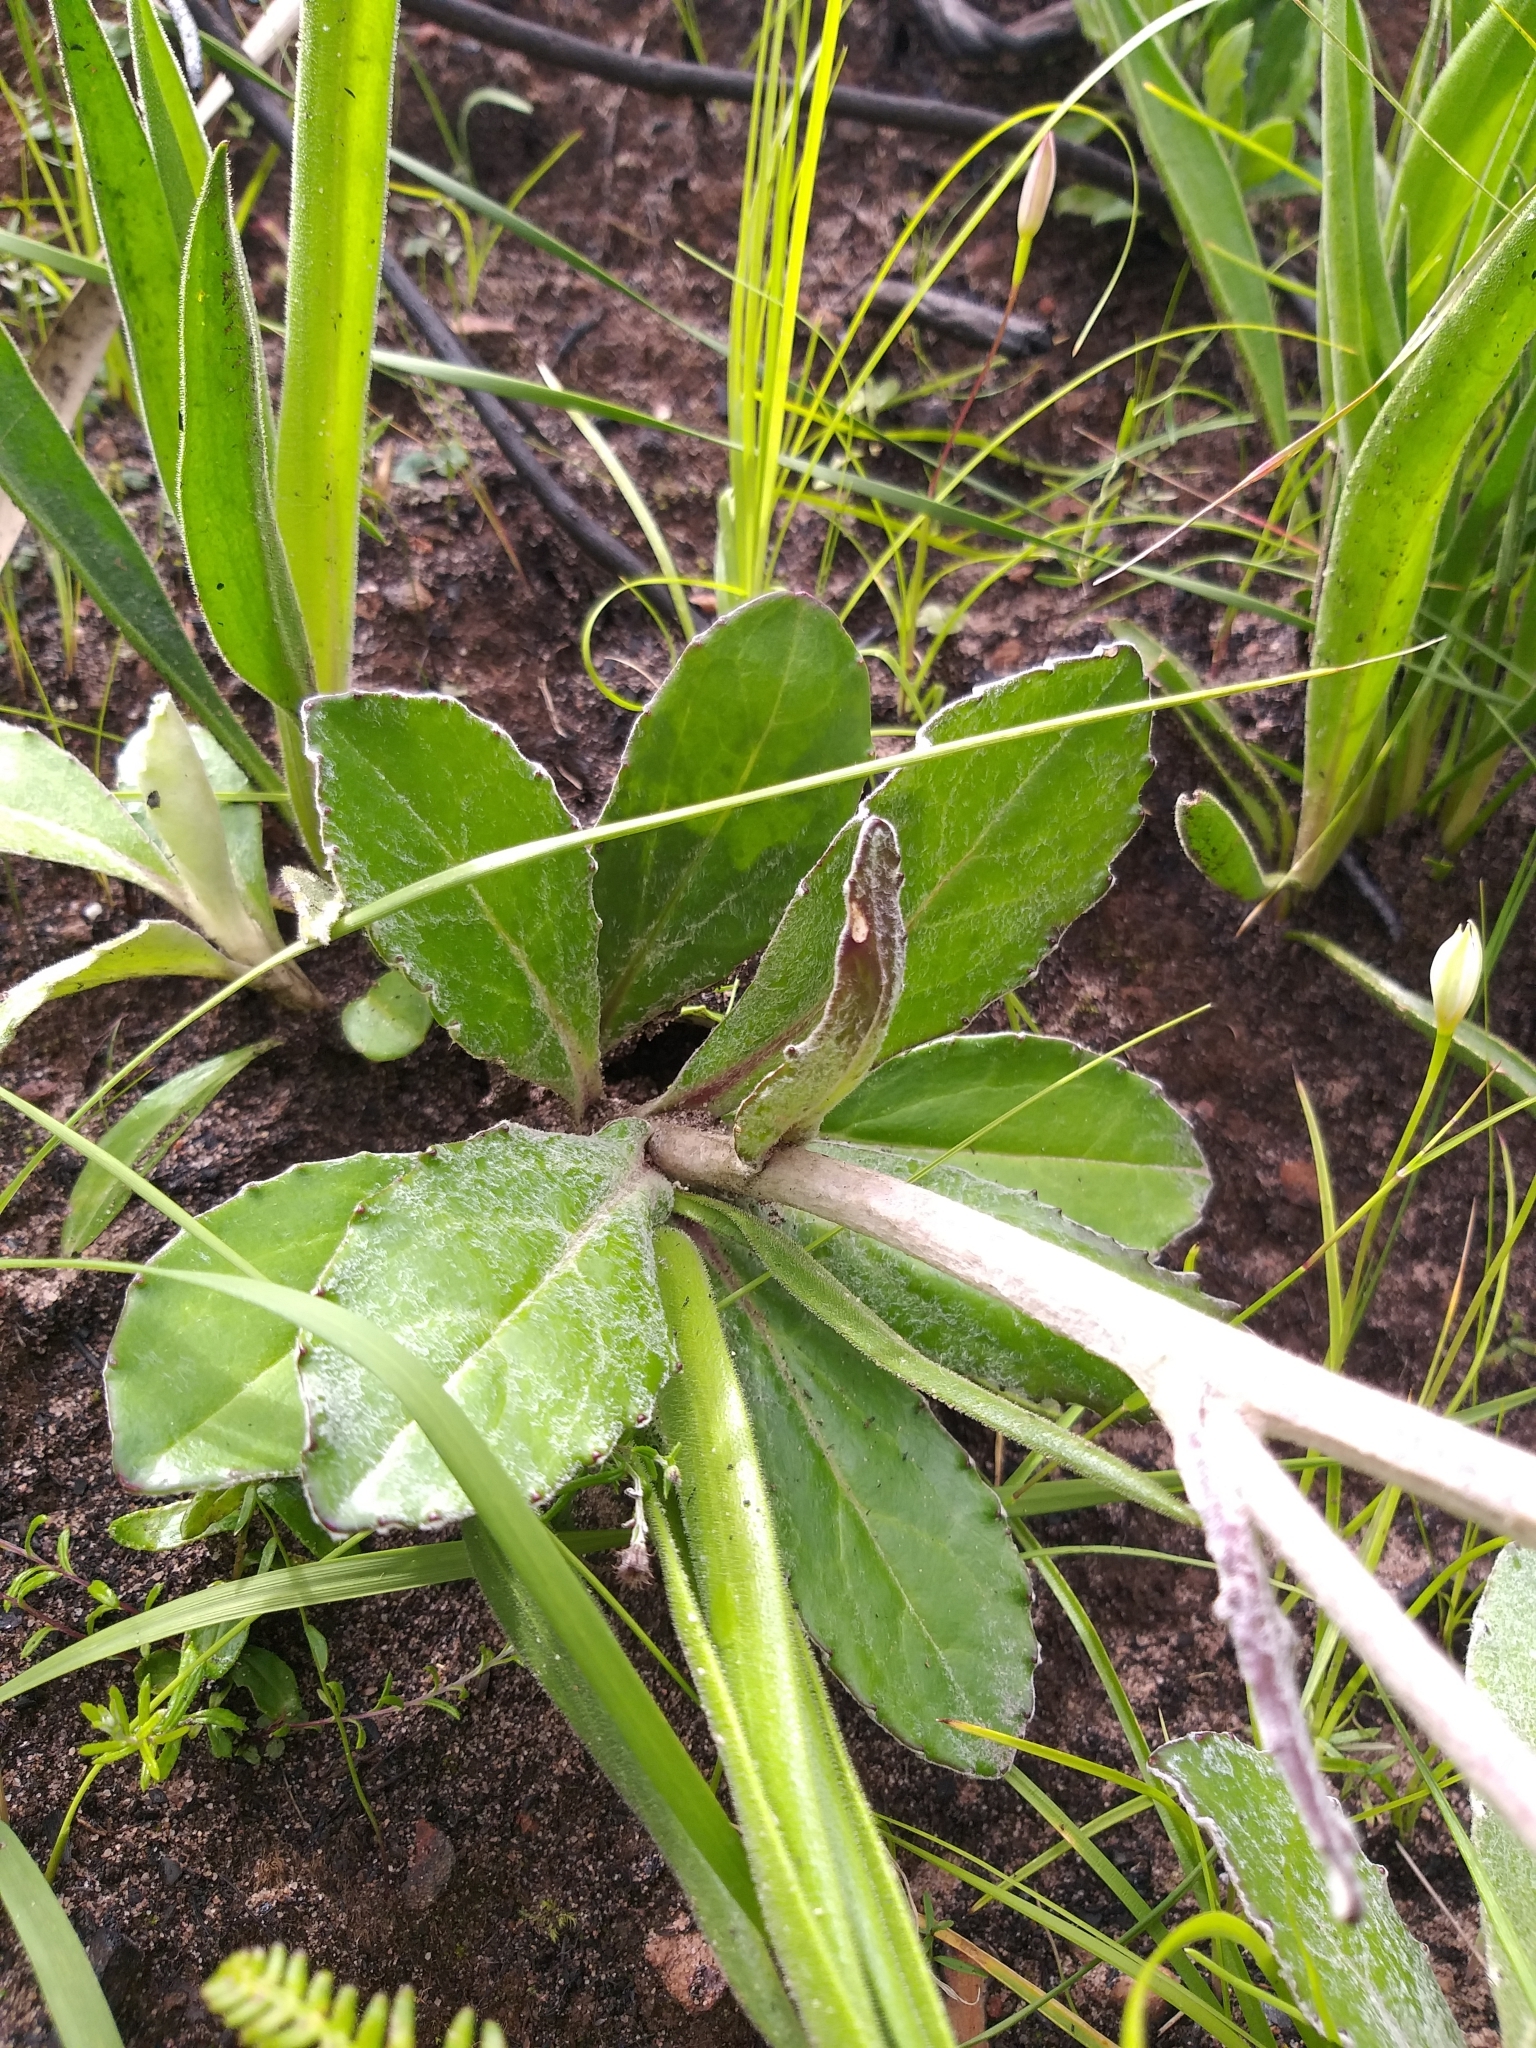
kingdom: Plantae
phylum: Tracheophyta
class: Magnoliopsida
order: Asterales
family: Asteraceae
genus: Mairia
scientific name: Mairia robusta
